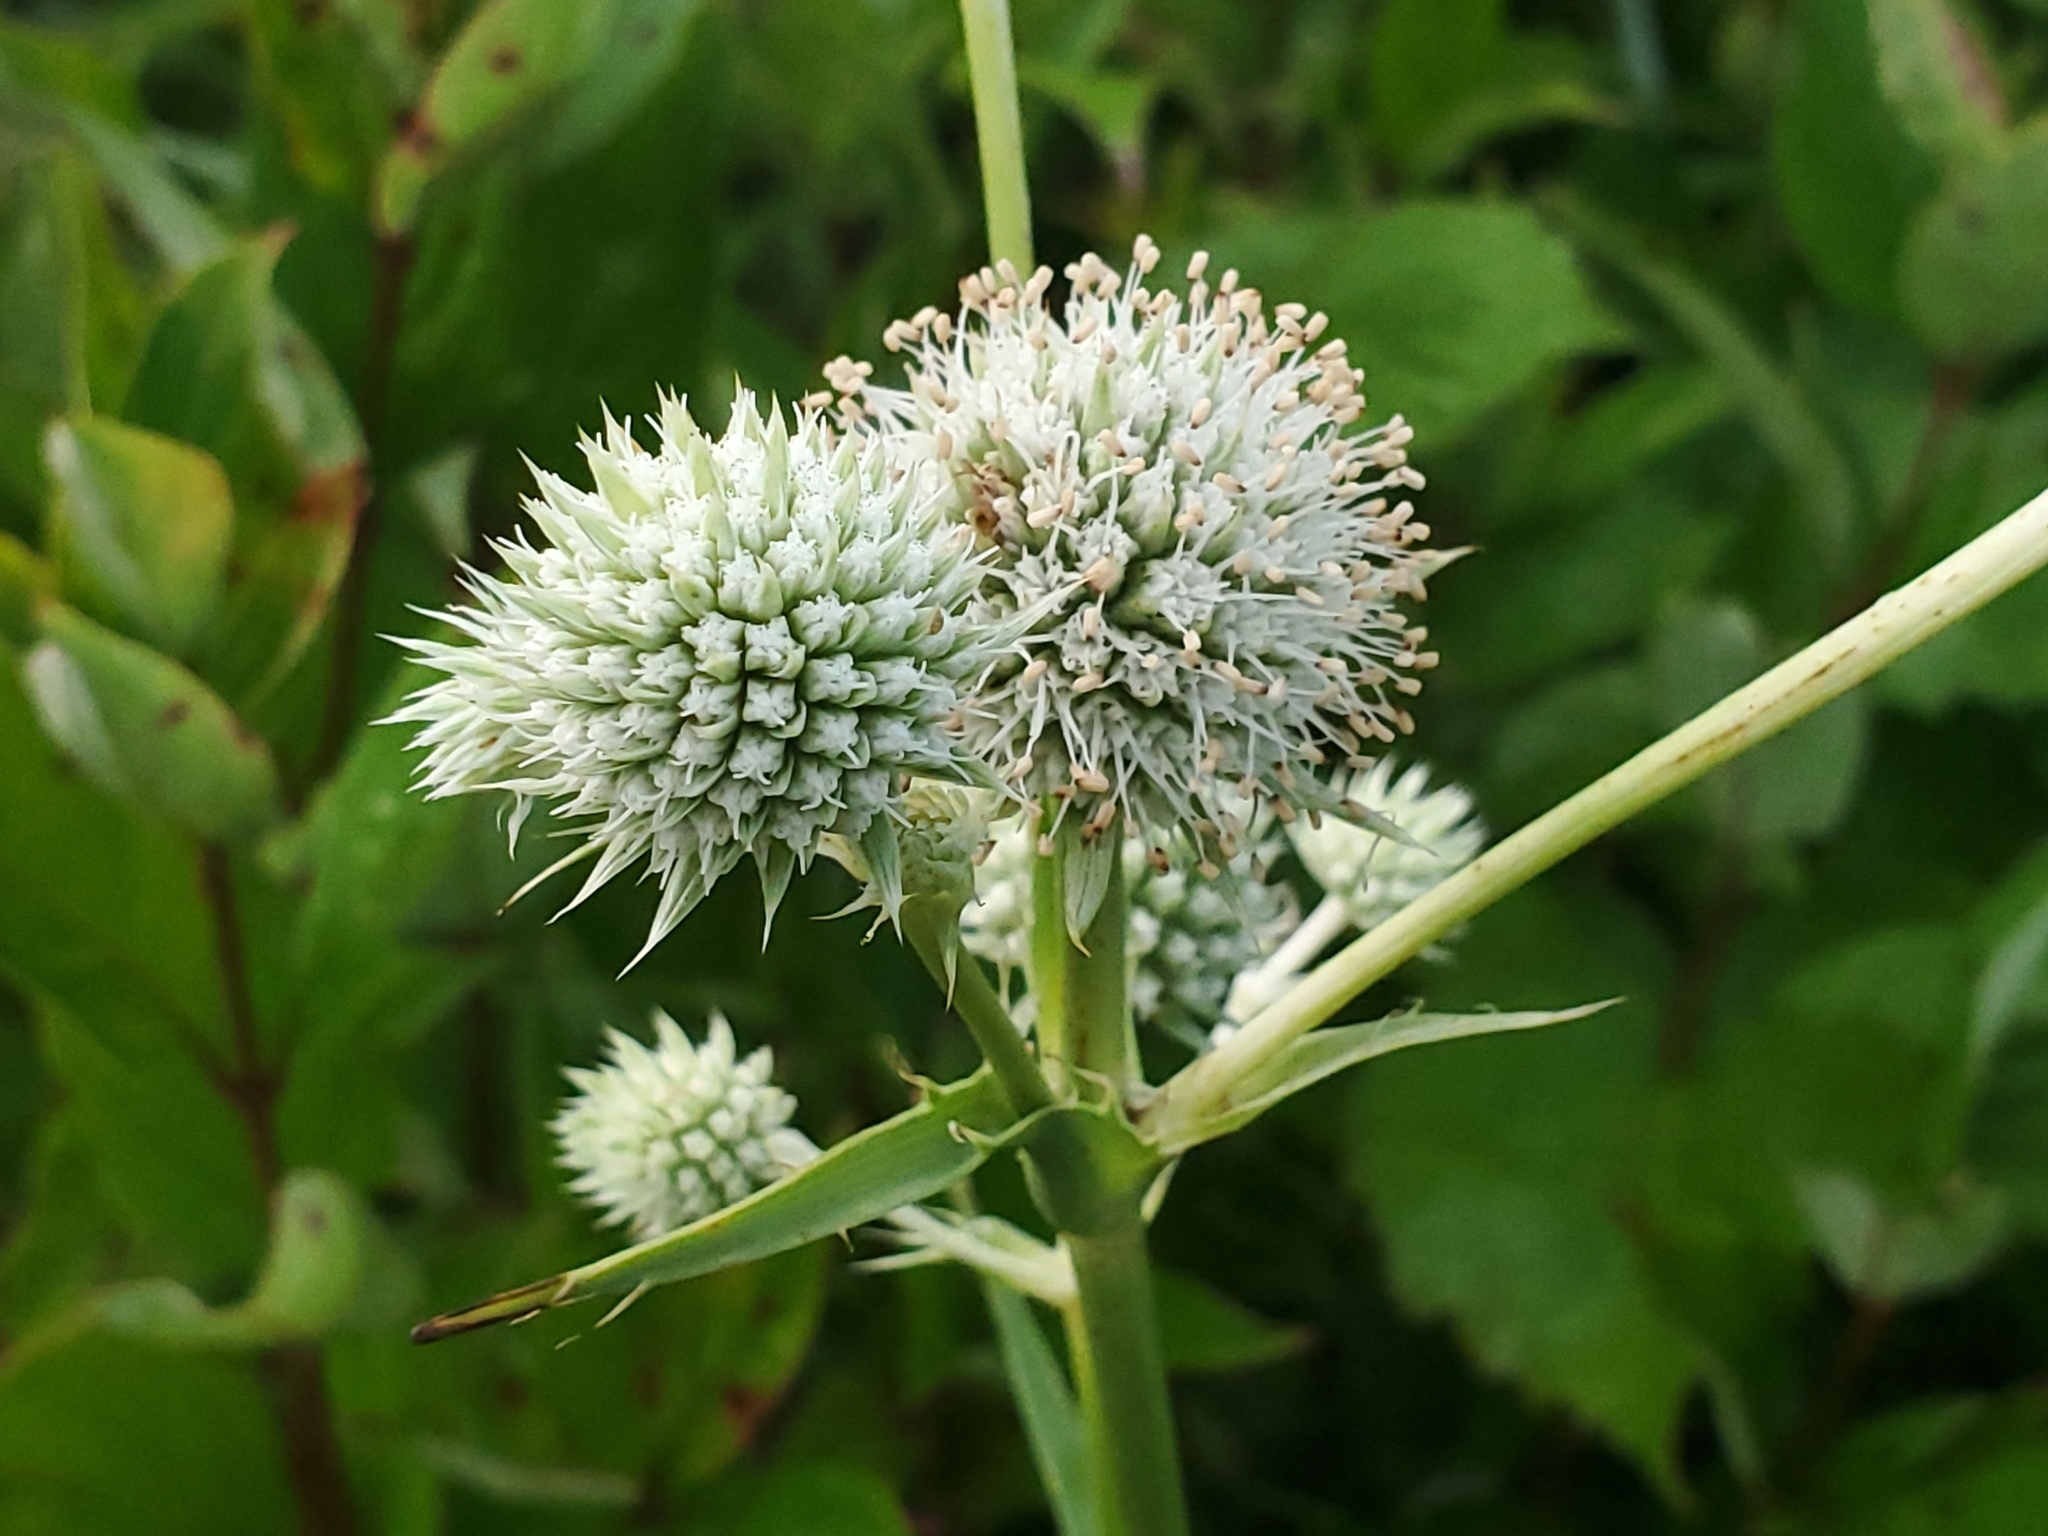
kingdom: Plantae
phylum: Tracheophyta
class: Magnoliopsida
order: Apiales
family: Apiaceae
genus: Eryngium
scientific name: Eryngium yuccifolium
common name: Button eryngo
